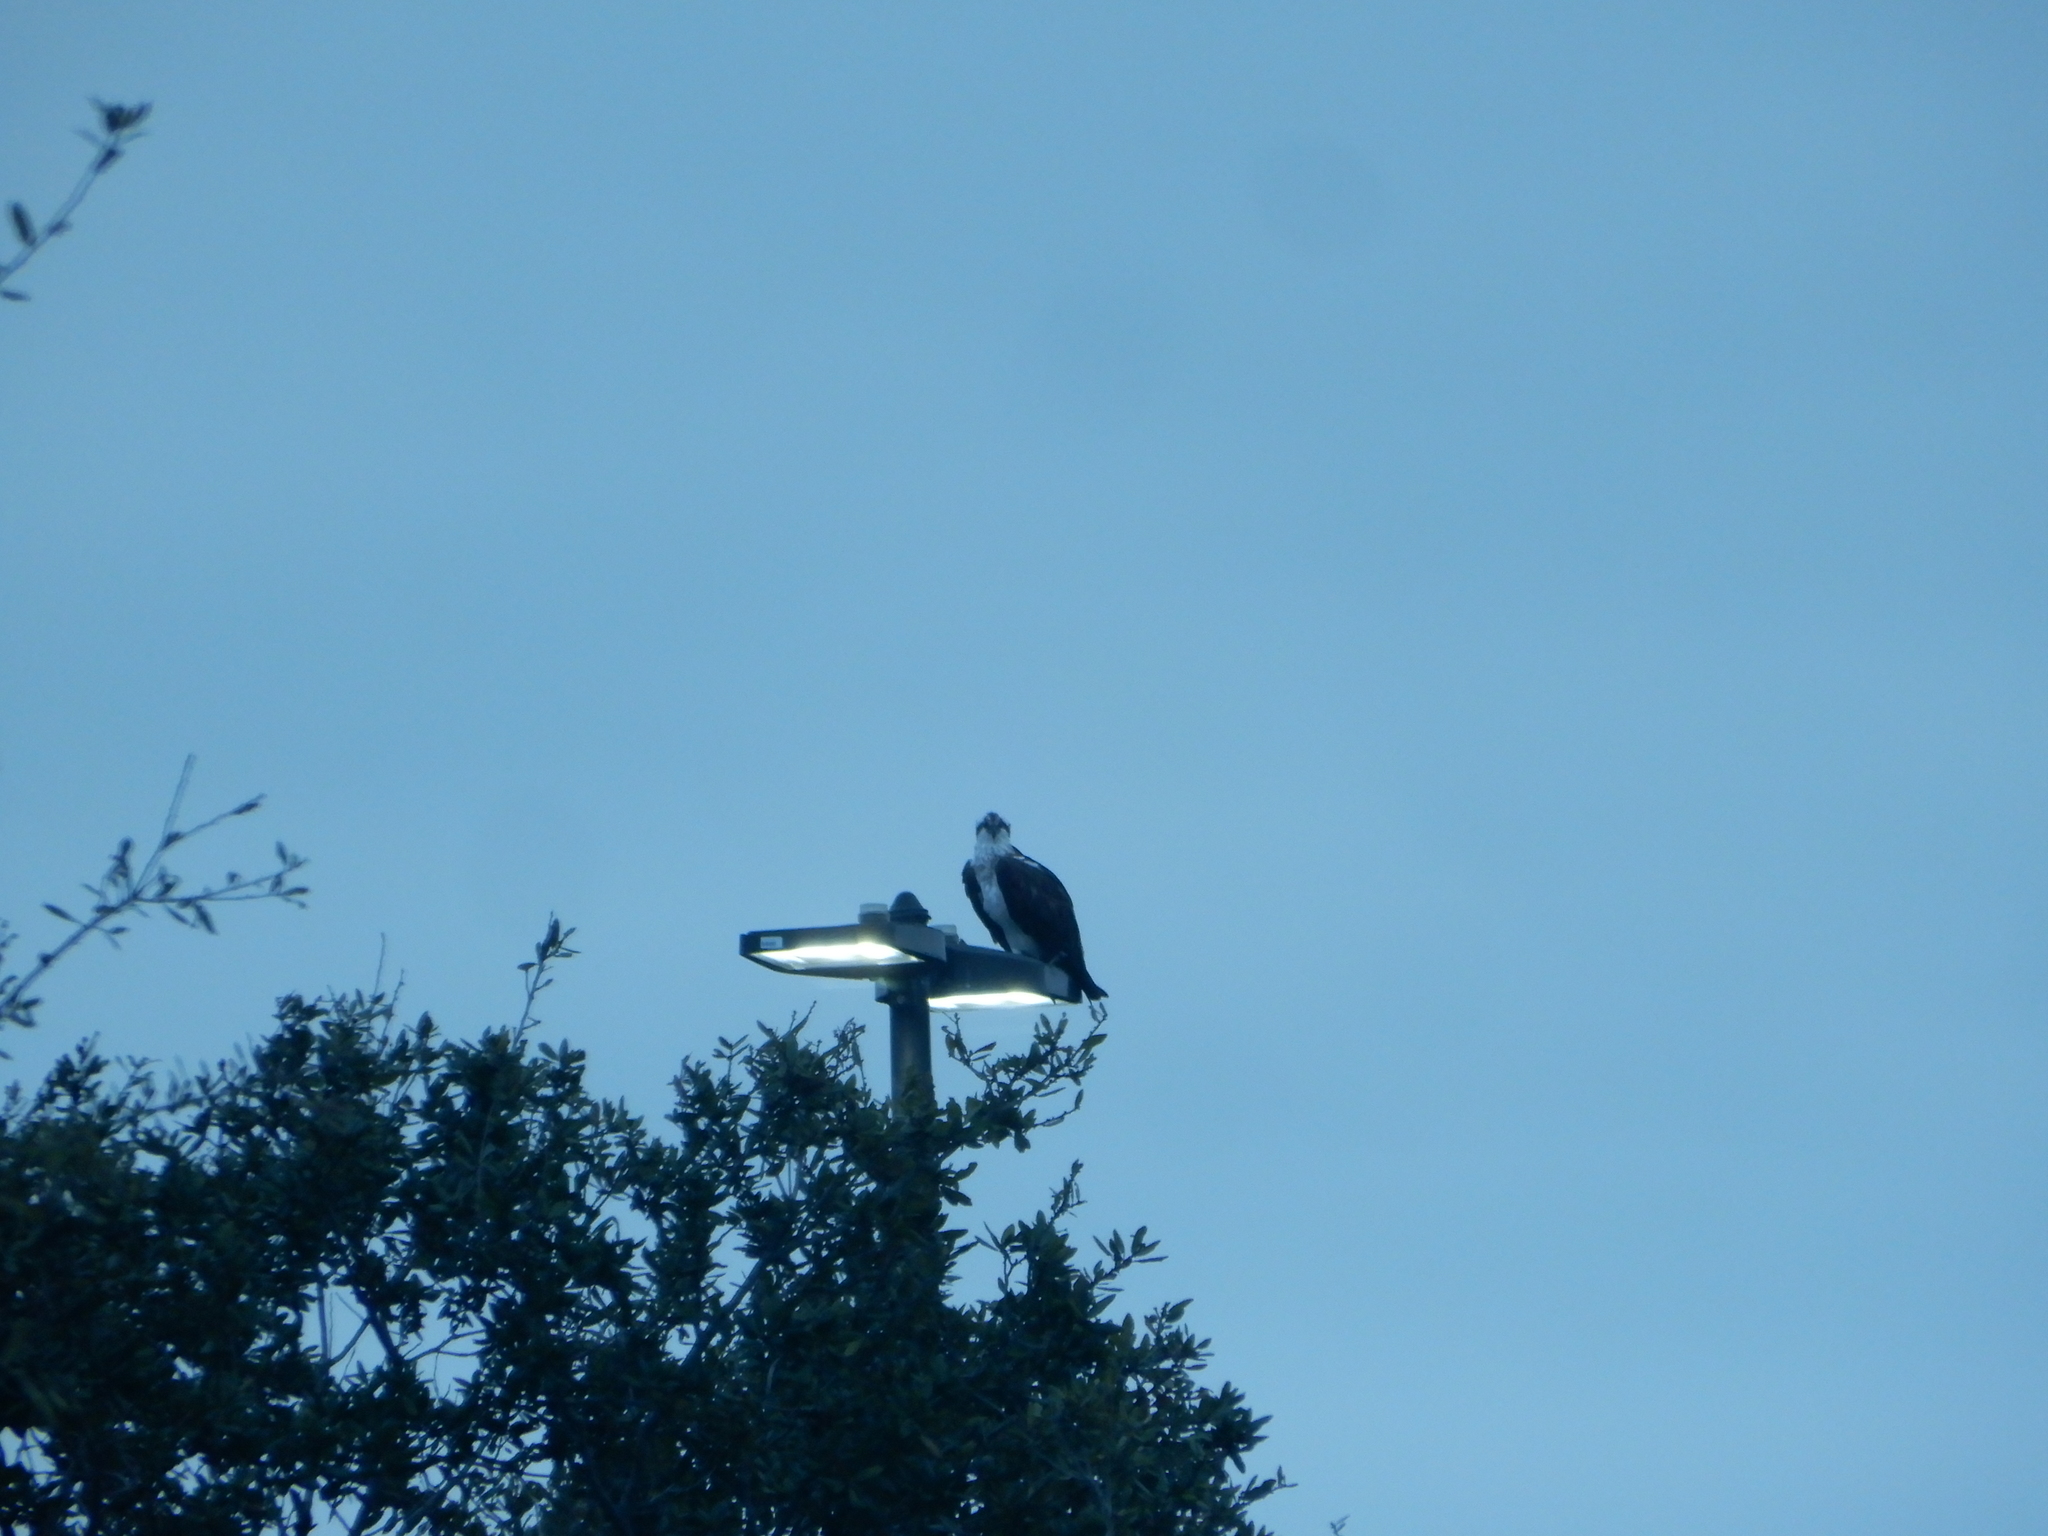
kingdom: Animalia
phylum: Chordata
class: Aves
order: Accipitriformes
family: Pandionidae
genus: Pandion
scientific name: Pandion haliaetus
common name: Osprey
